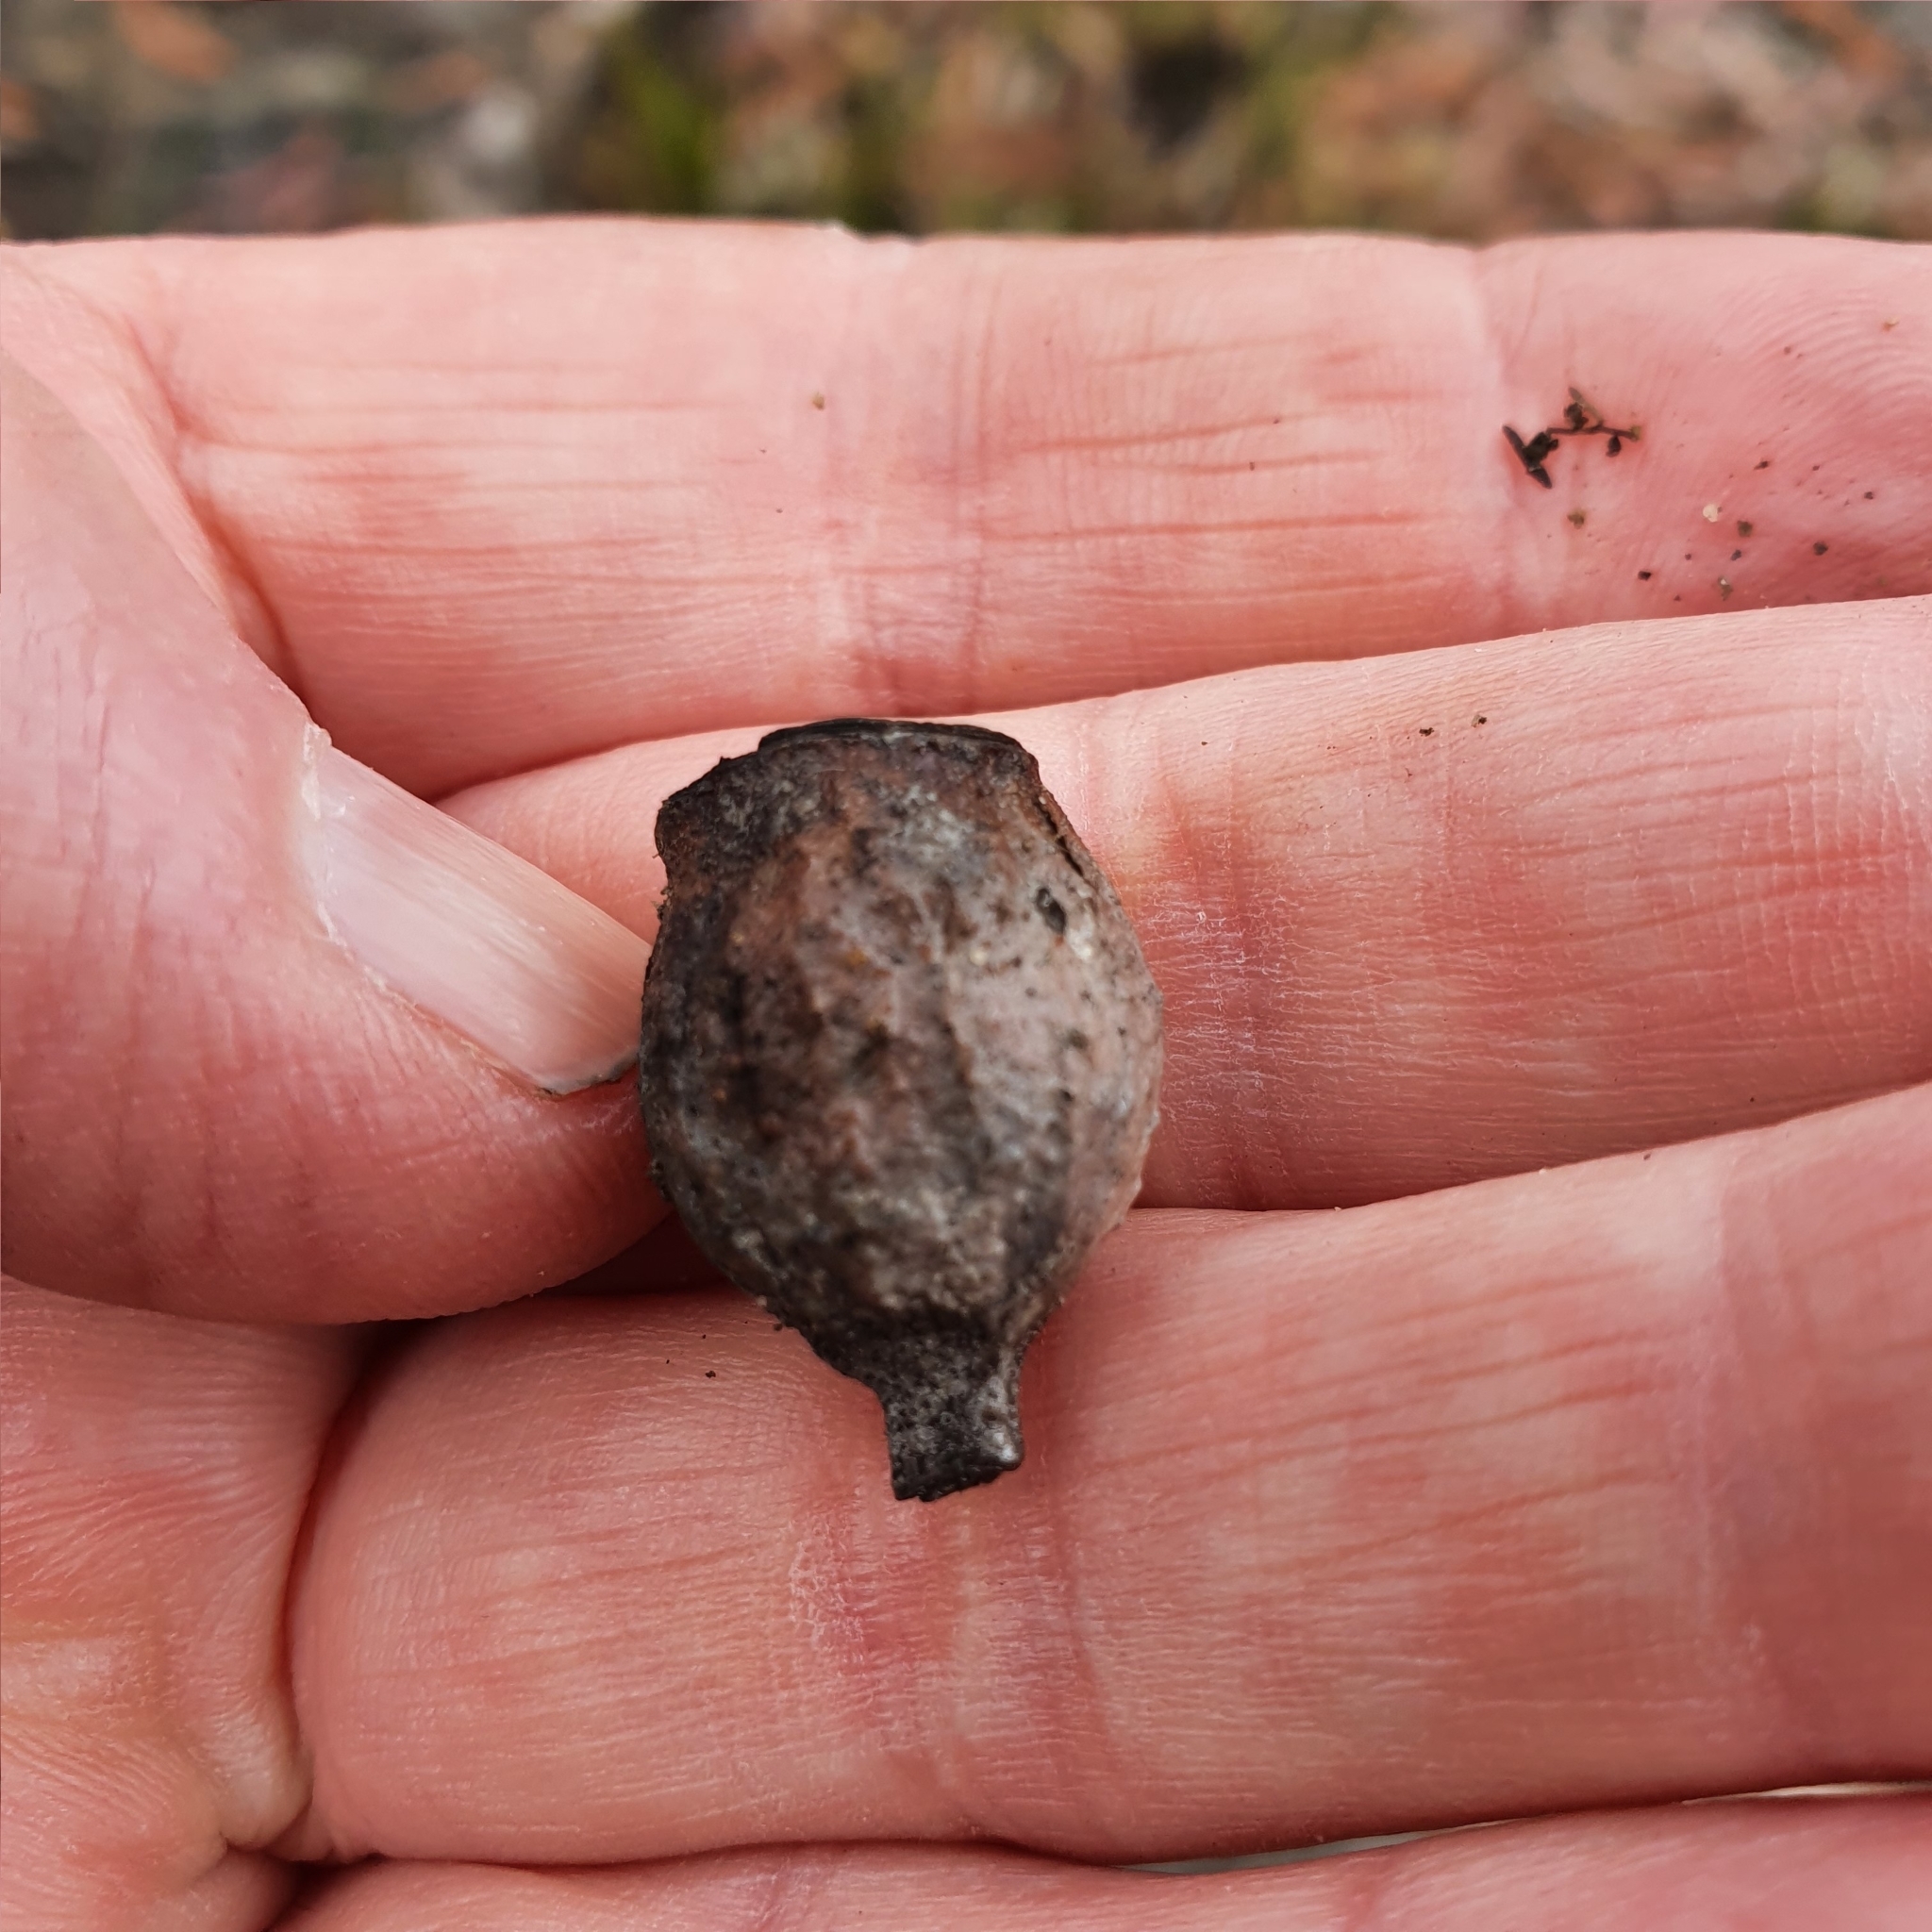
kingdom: Plantae
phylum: Tracheophyta
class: Magnoliopsida
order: Myrtales
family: Myrtaceae
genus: Corymbia
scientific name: Corymbia eximia
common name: Yellow bloodwood
